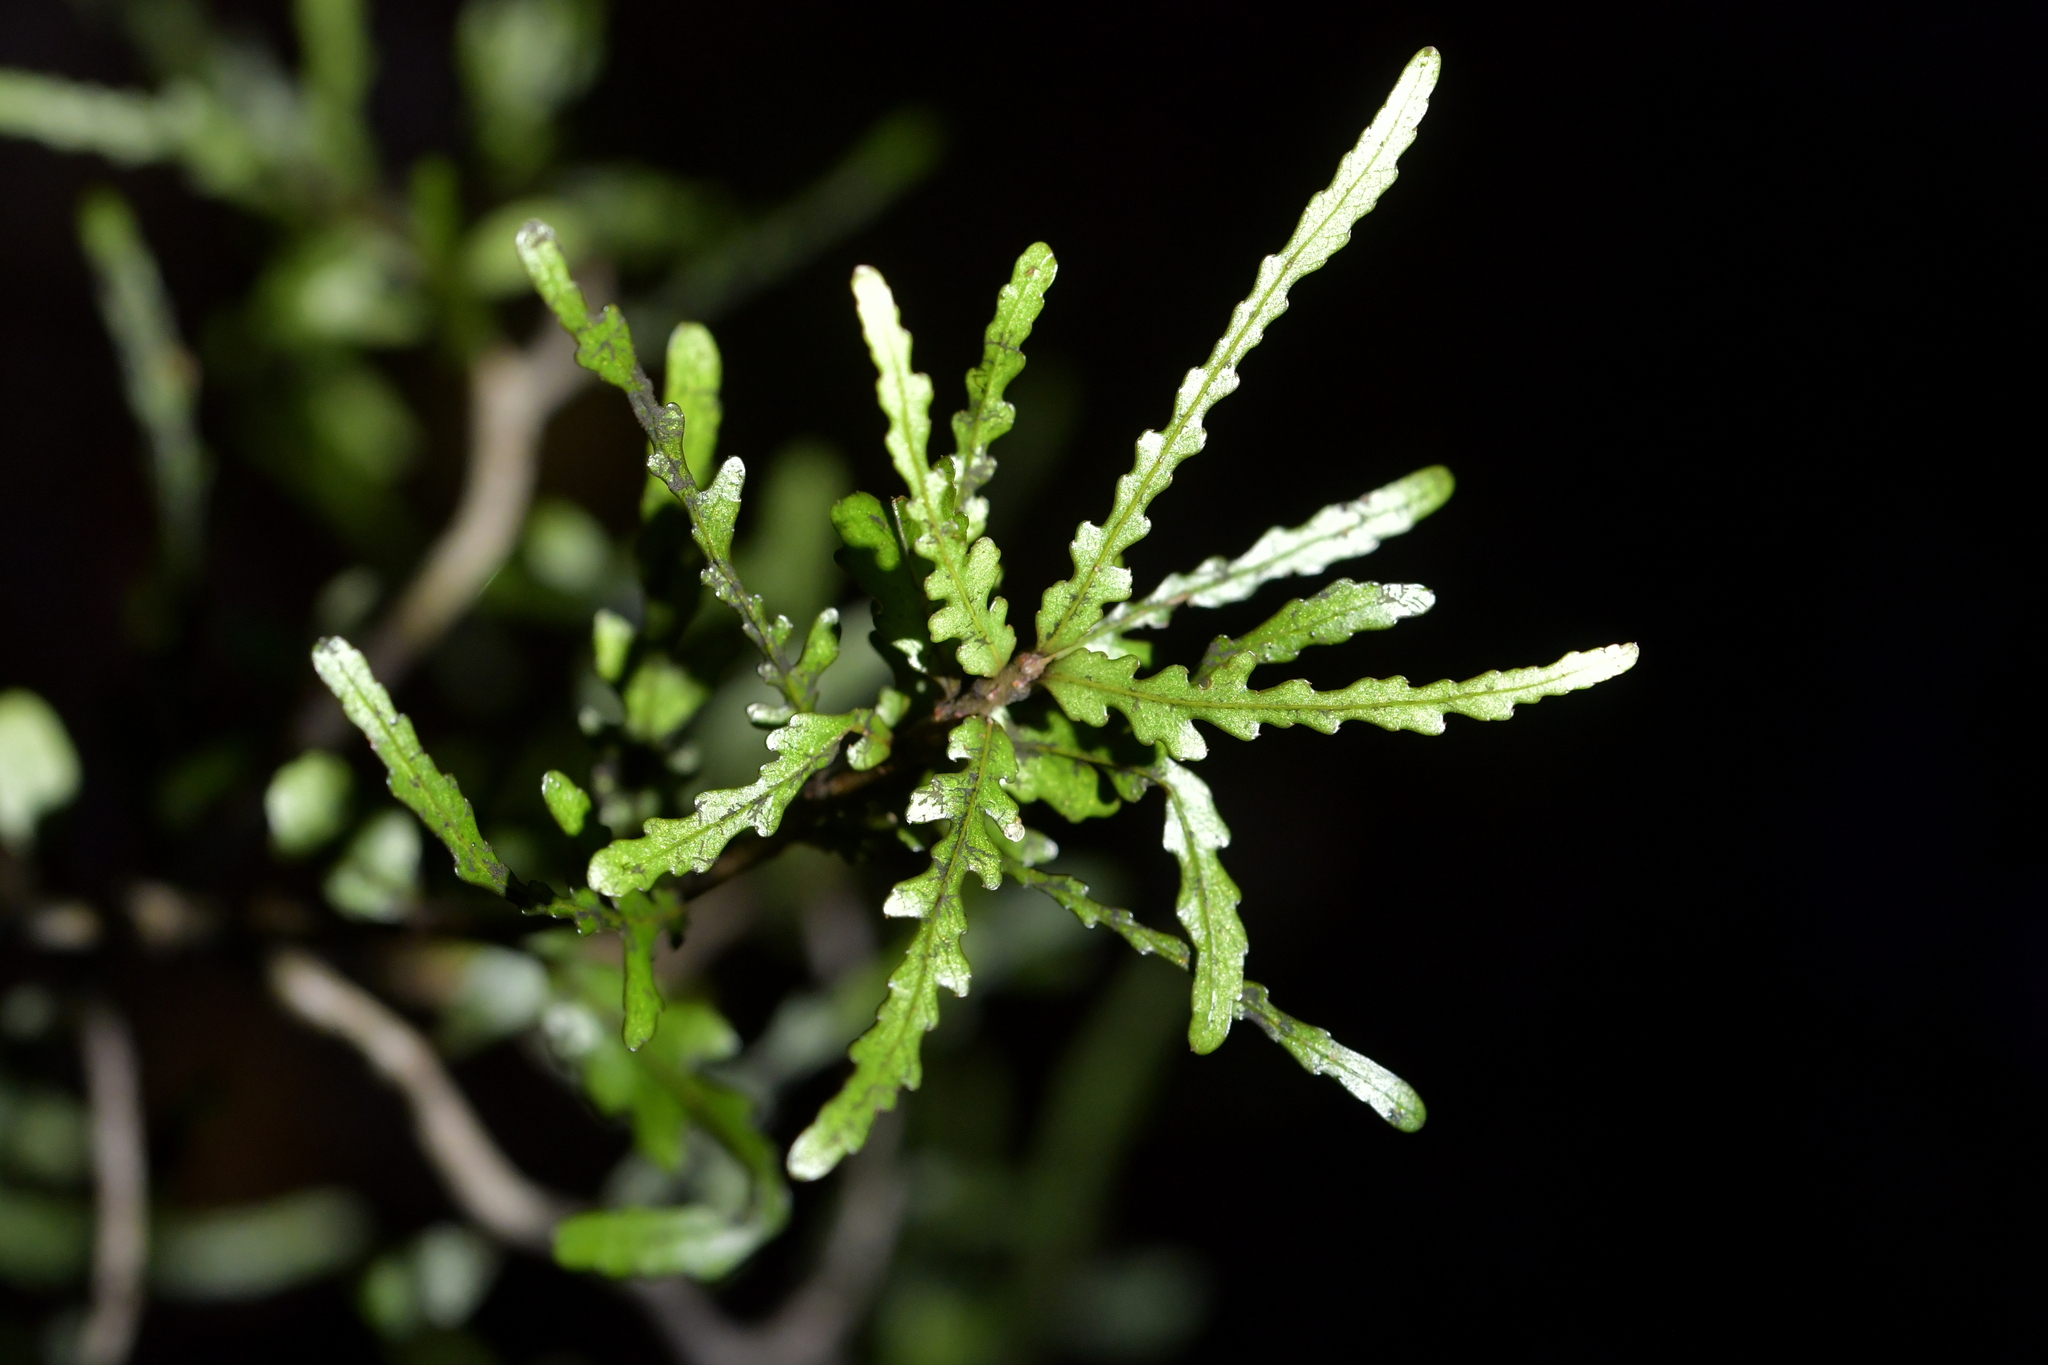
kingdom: Plantae
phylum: Tracheophyta
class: Magnoliopsida
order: Oxalidales
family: Elaeocarpaceae
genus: Elaeocarpus
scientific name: Elaeocarpus hookerianus
